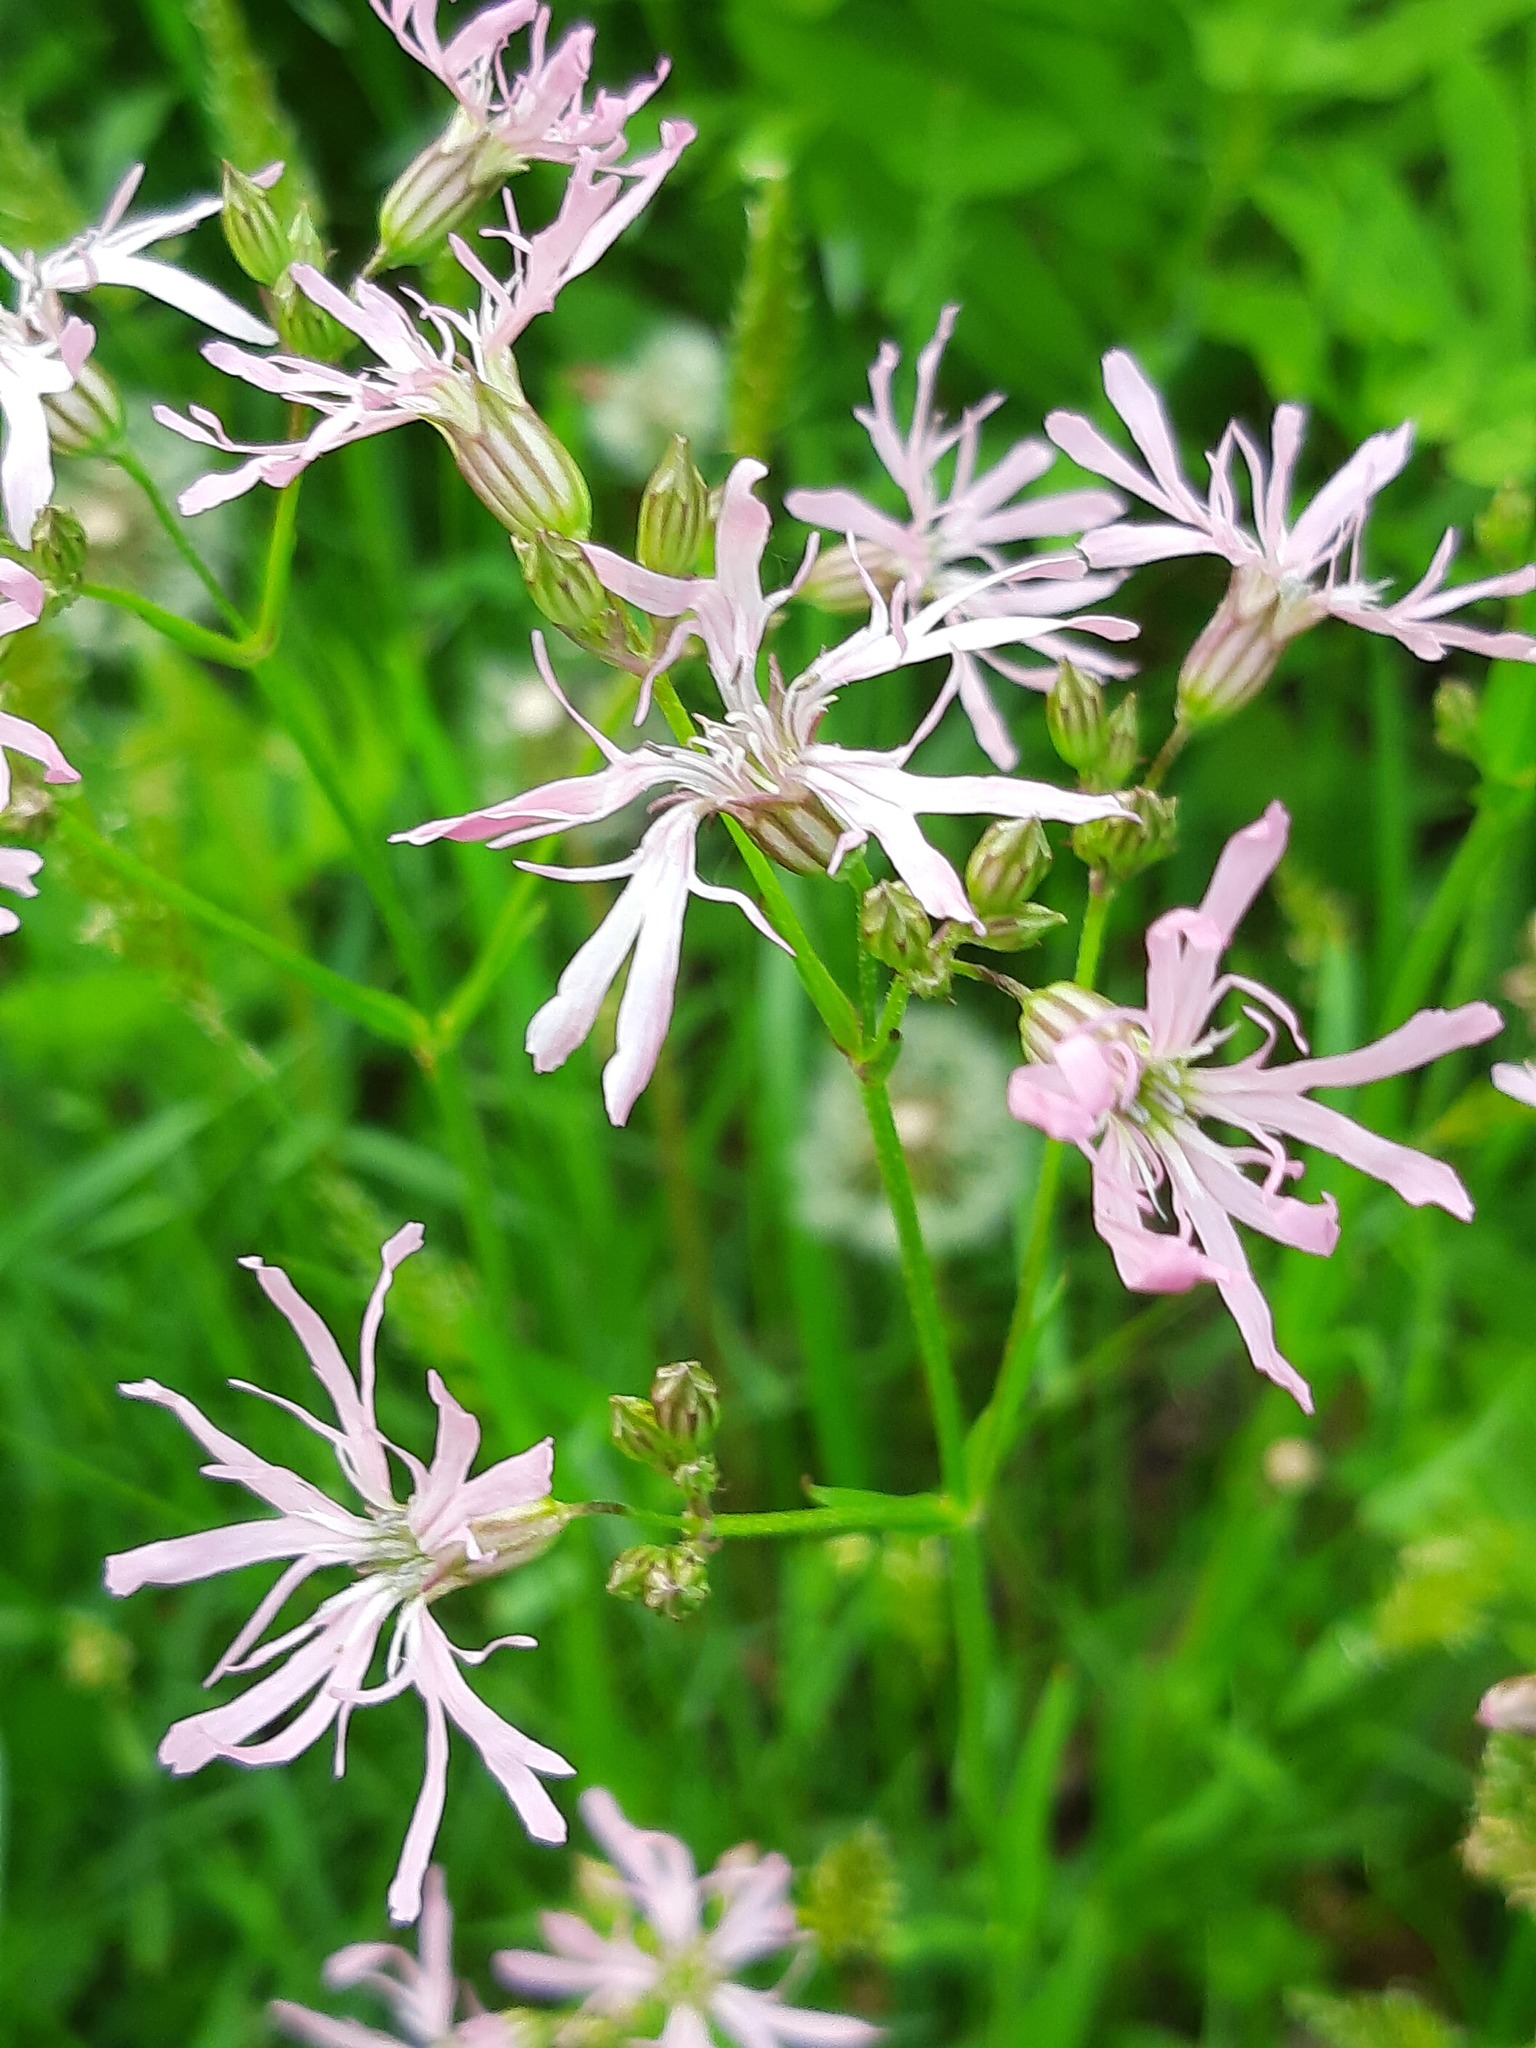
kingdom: Plantae
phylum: Tracheophyta
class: Magnoliopsida
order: Caryophyllales
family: Caryophyllaceae
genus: Silene
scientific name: Silene flos-cuculi
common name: Ragged-robin
